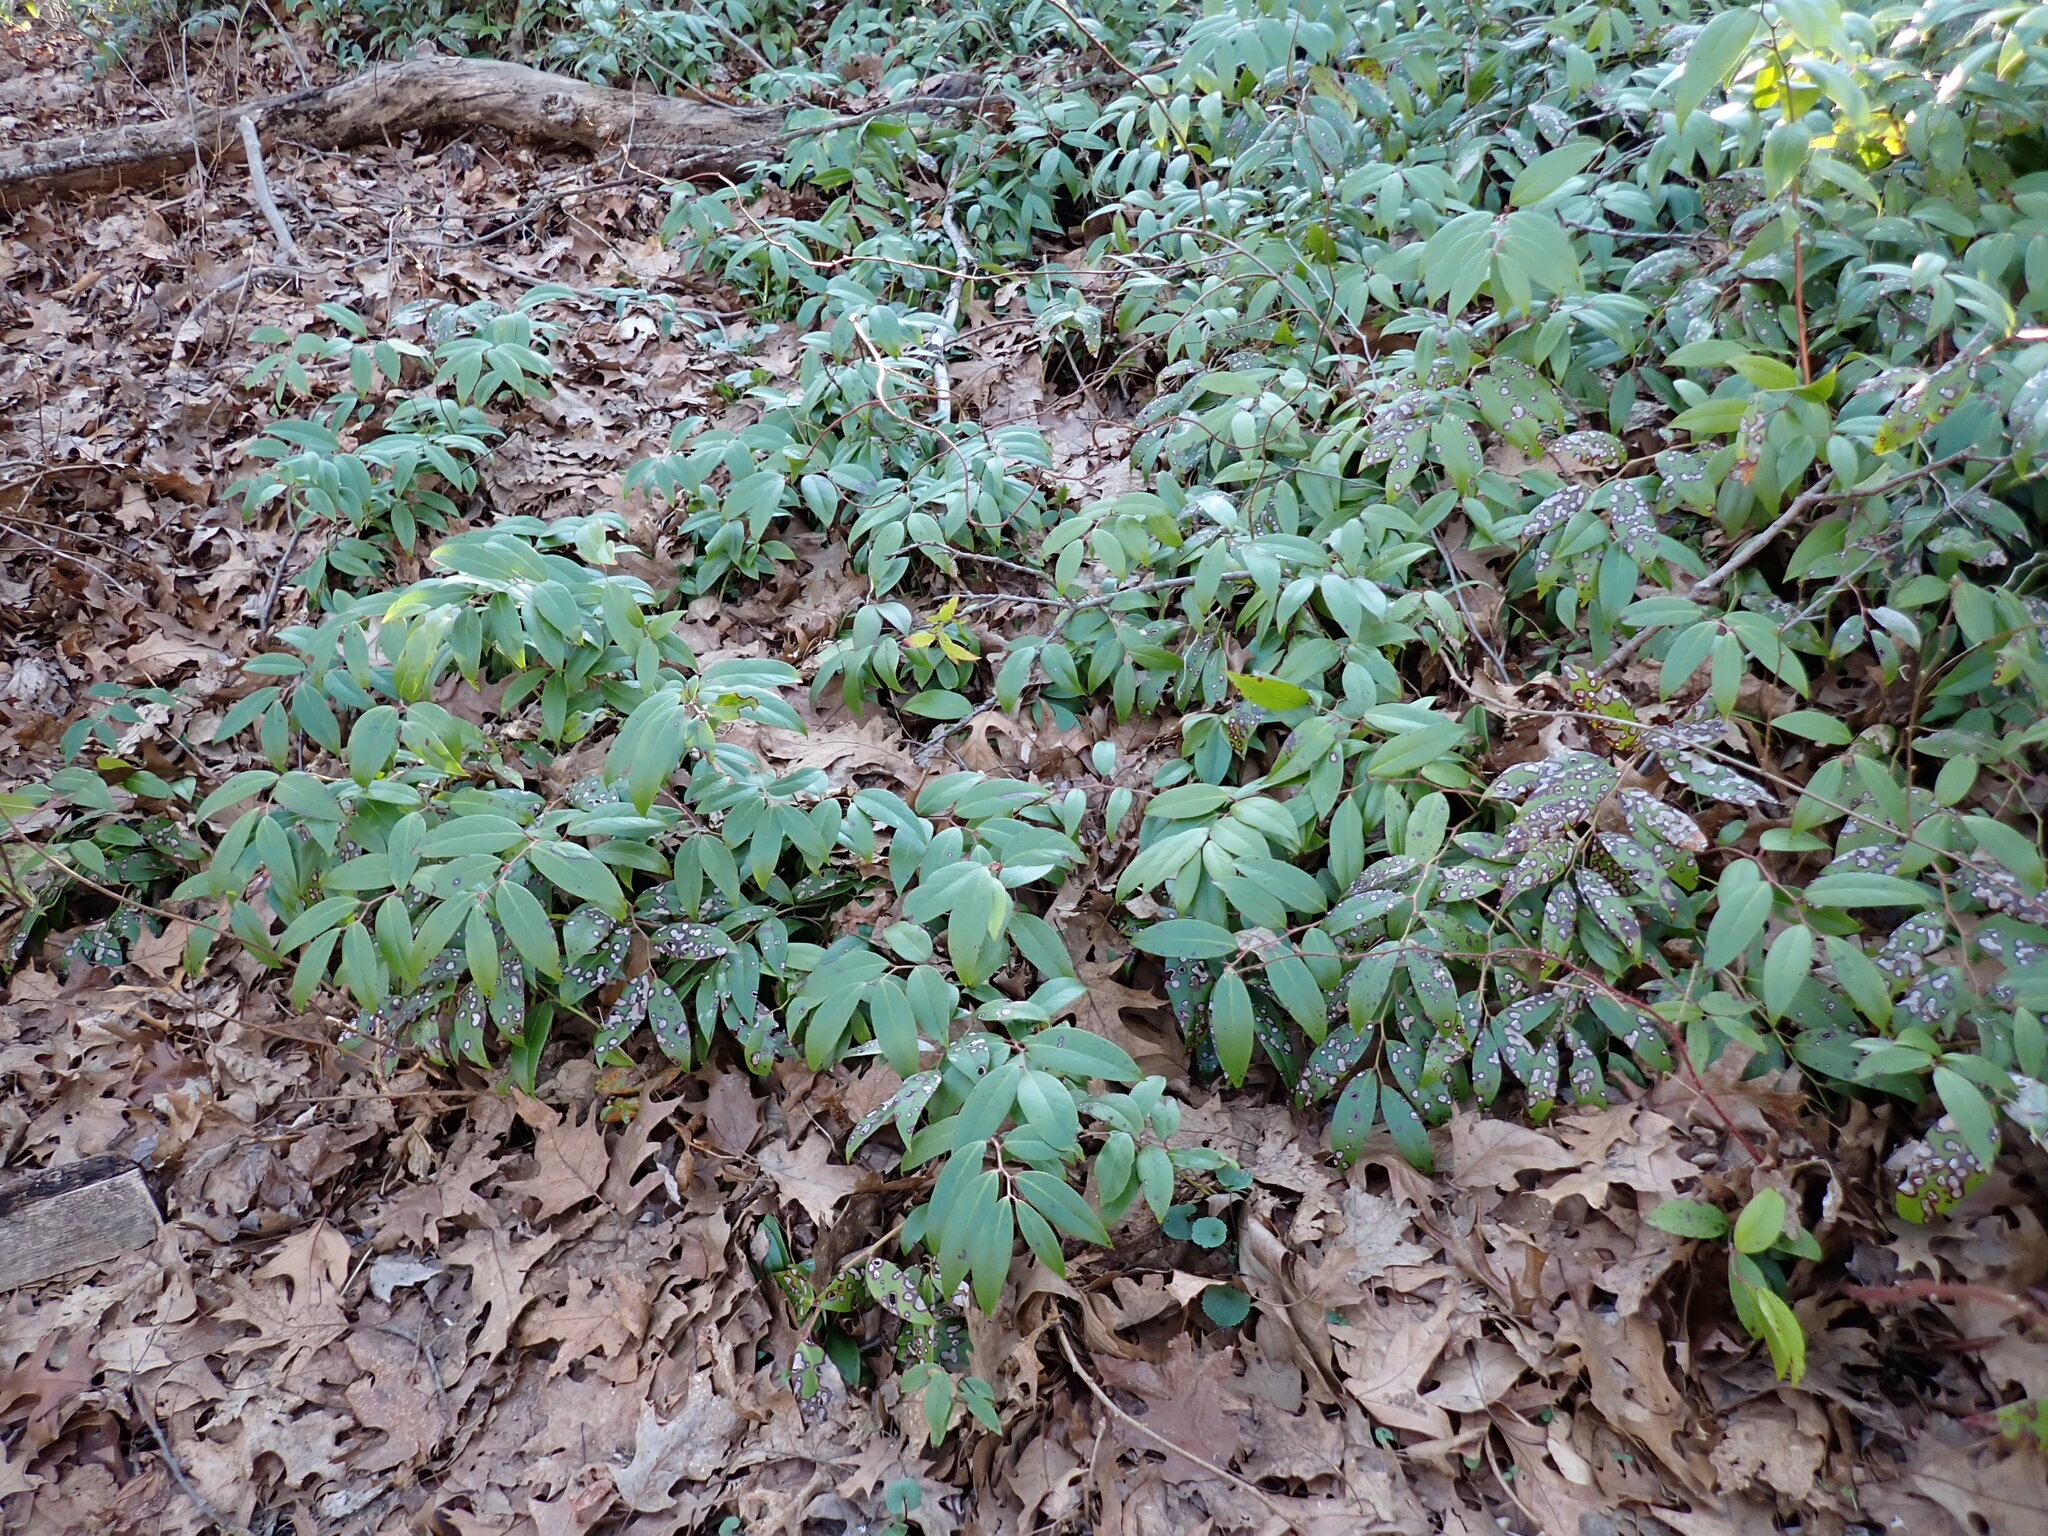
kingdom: Plantae
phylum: Tracheophyta
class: Magnoliopsida
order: Ericales
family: Ericaceae
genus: Leucothoe
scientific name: Leucothoe fontanesiana
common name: Fetterbush
